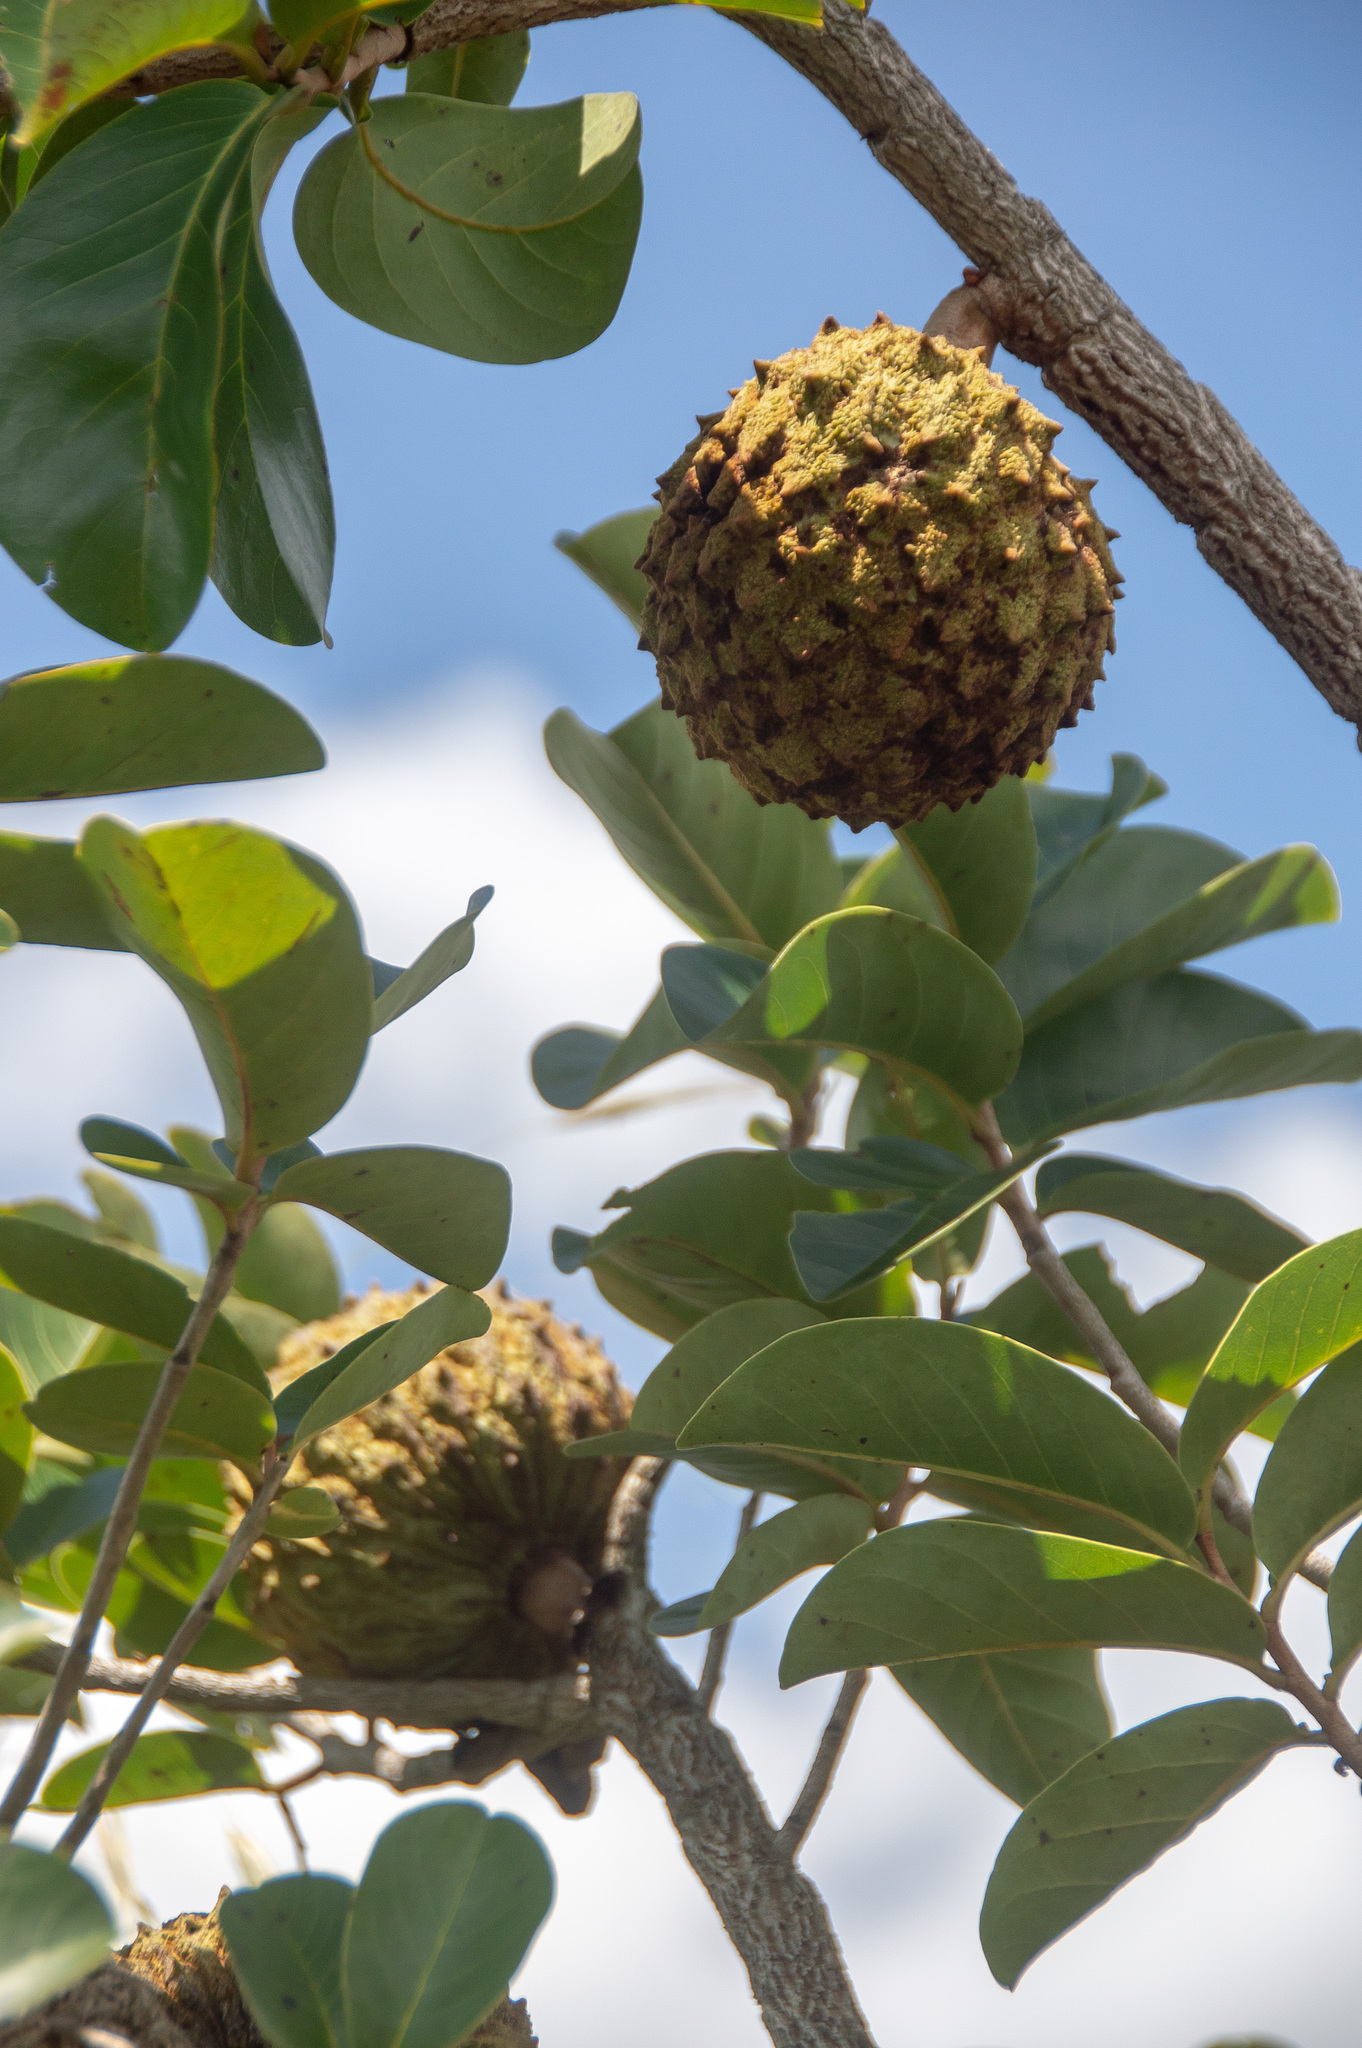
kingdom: Plantae
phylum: Tracheophyta
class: Magnoliopsida
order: Magnoliales
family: Annonaceae
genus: Annona
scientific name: Annona crassiflora
